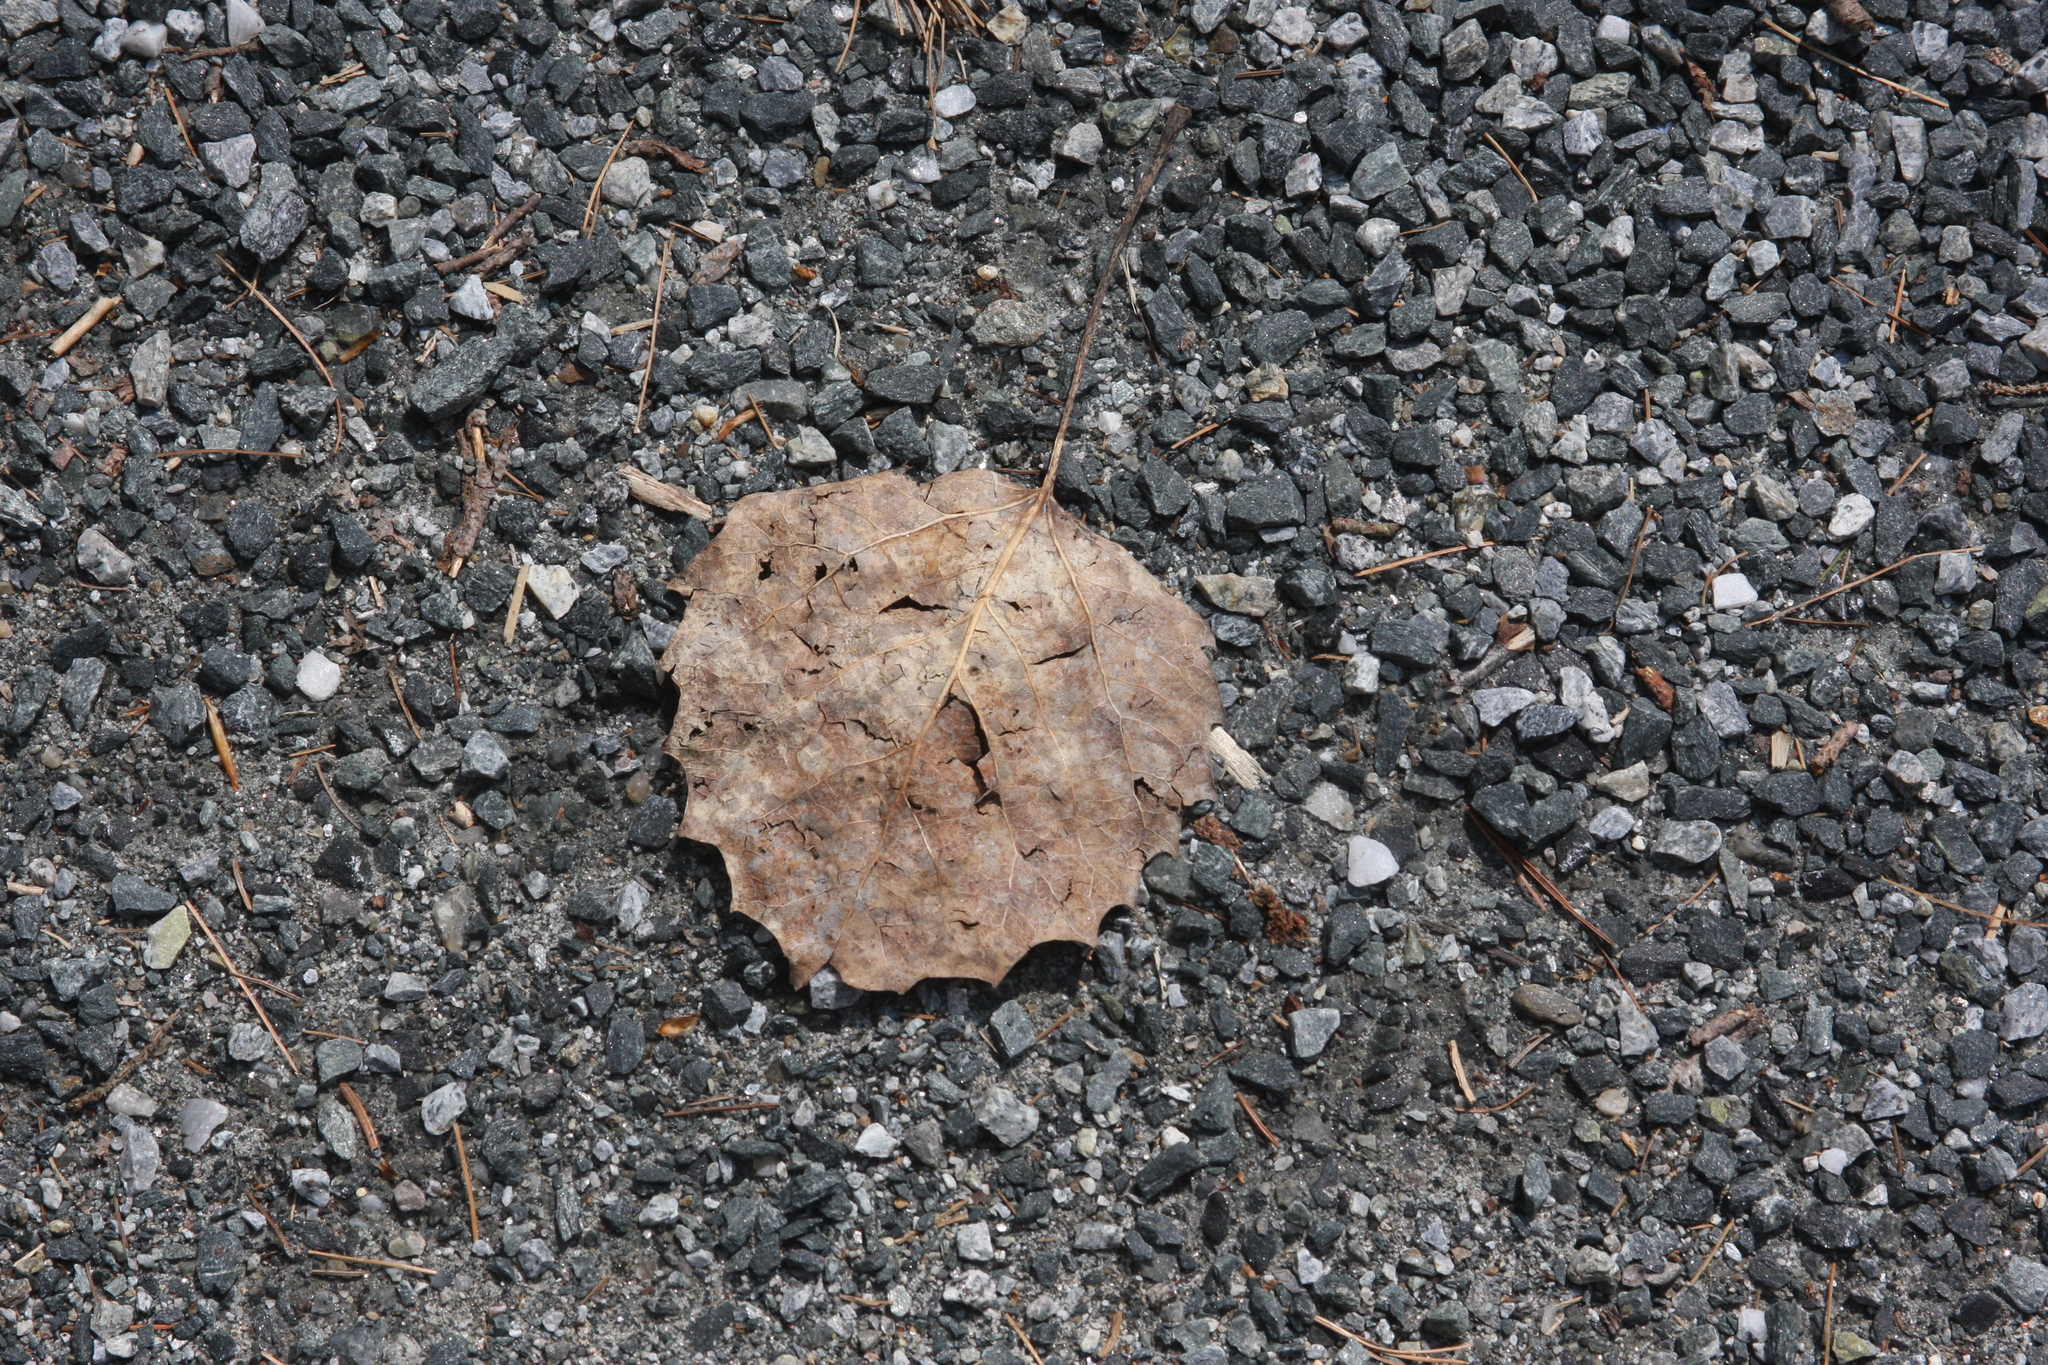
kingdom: Plantae
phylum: Tracheophyta
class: Magnoliopsida
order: Malpighiales
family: Salicaceae
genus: Populus
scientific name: Populus grandidentata
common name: Bigtooth aspen
